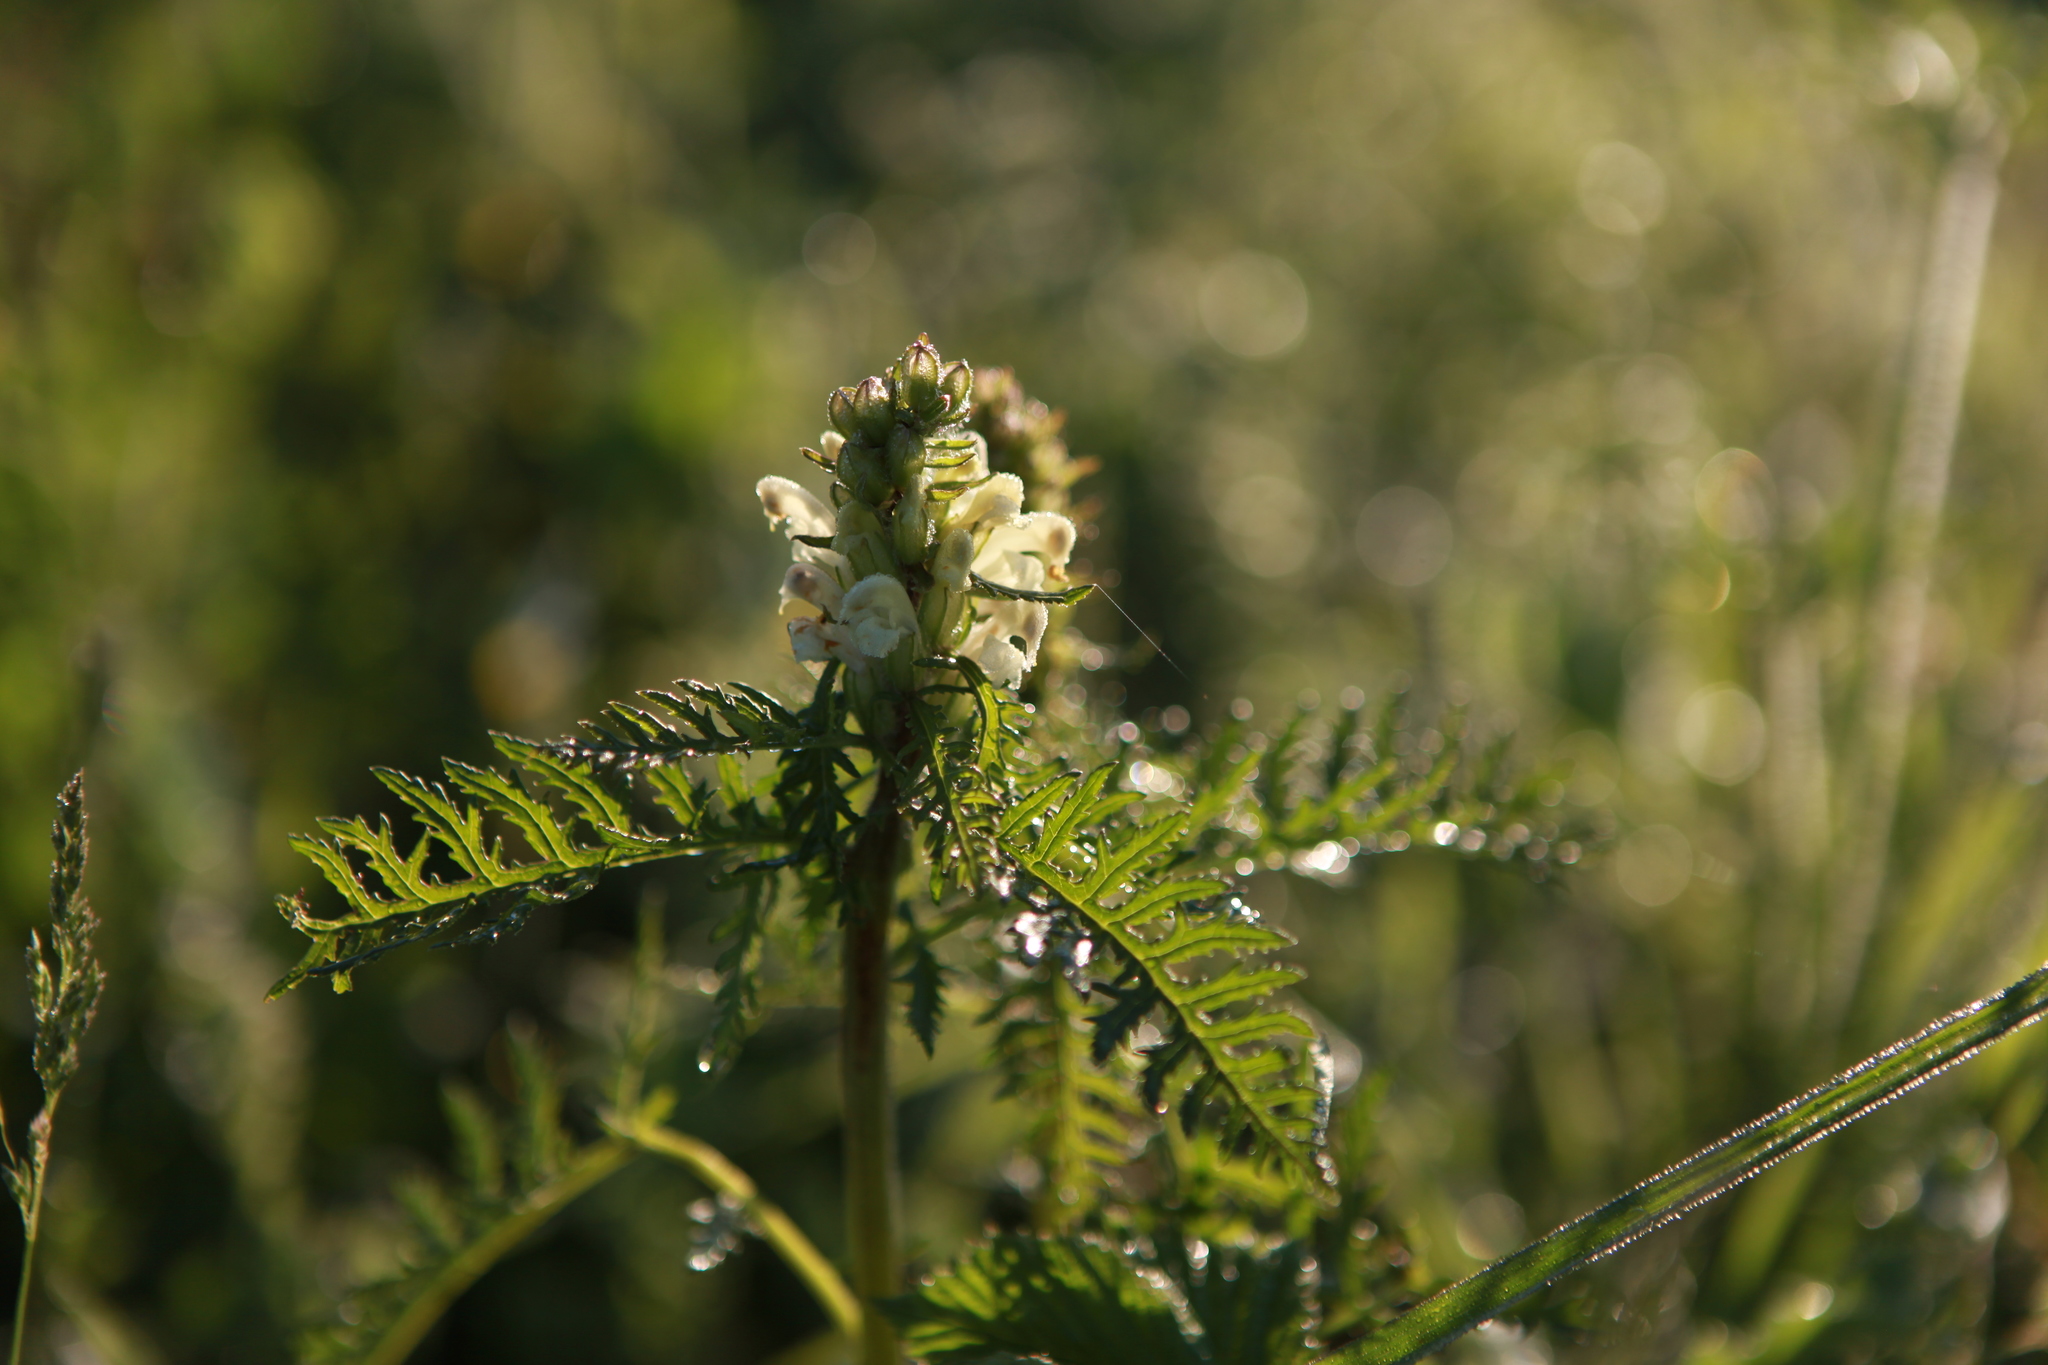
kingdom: Plantae
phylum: Tracheophyta
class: Magnoliopsida
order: Lamiales
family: Orobanchaceae
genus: Pedicularis
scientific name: Pedicularis sibirica
